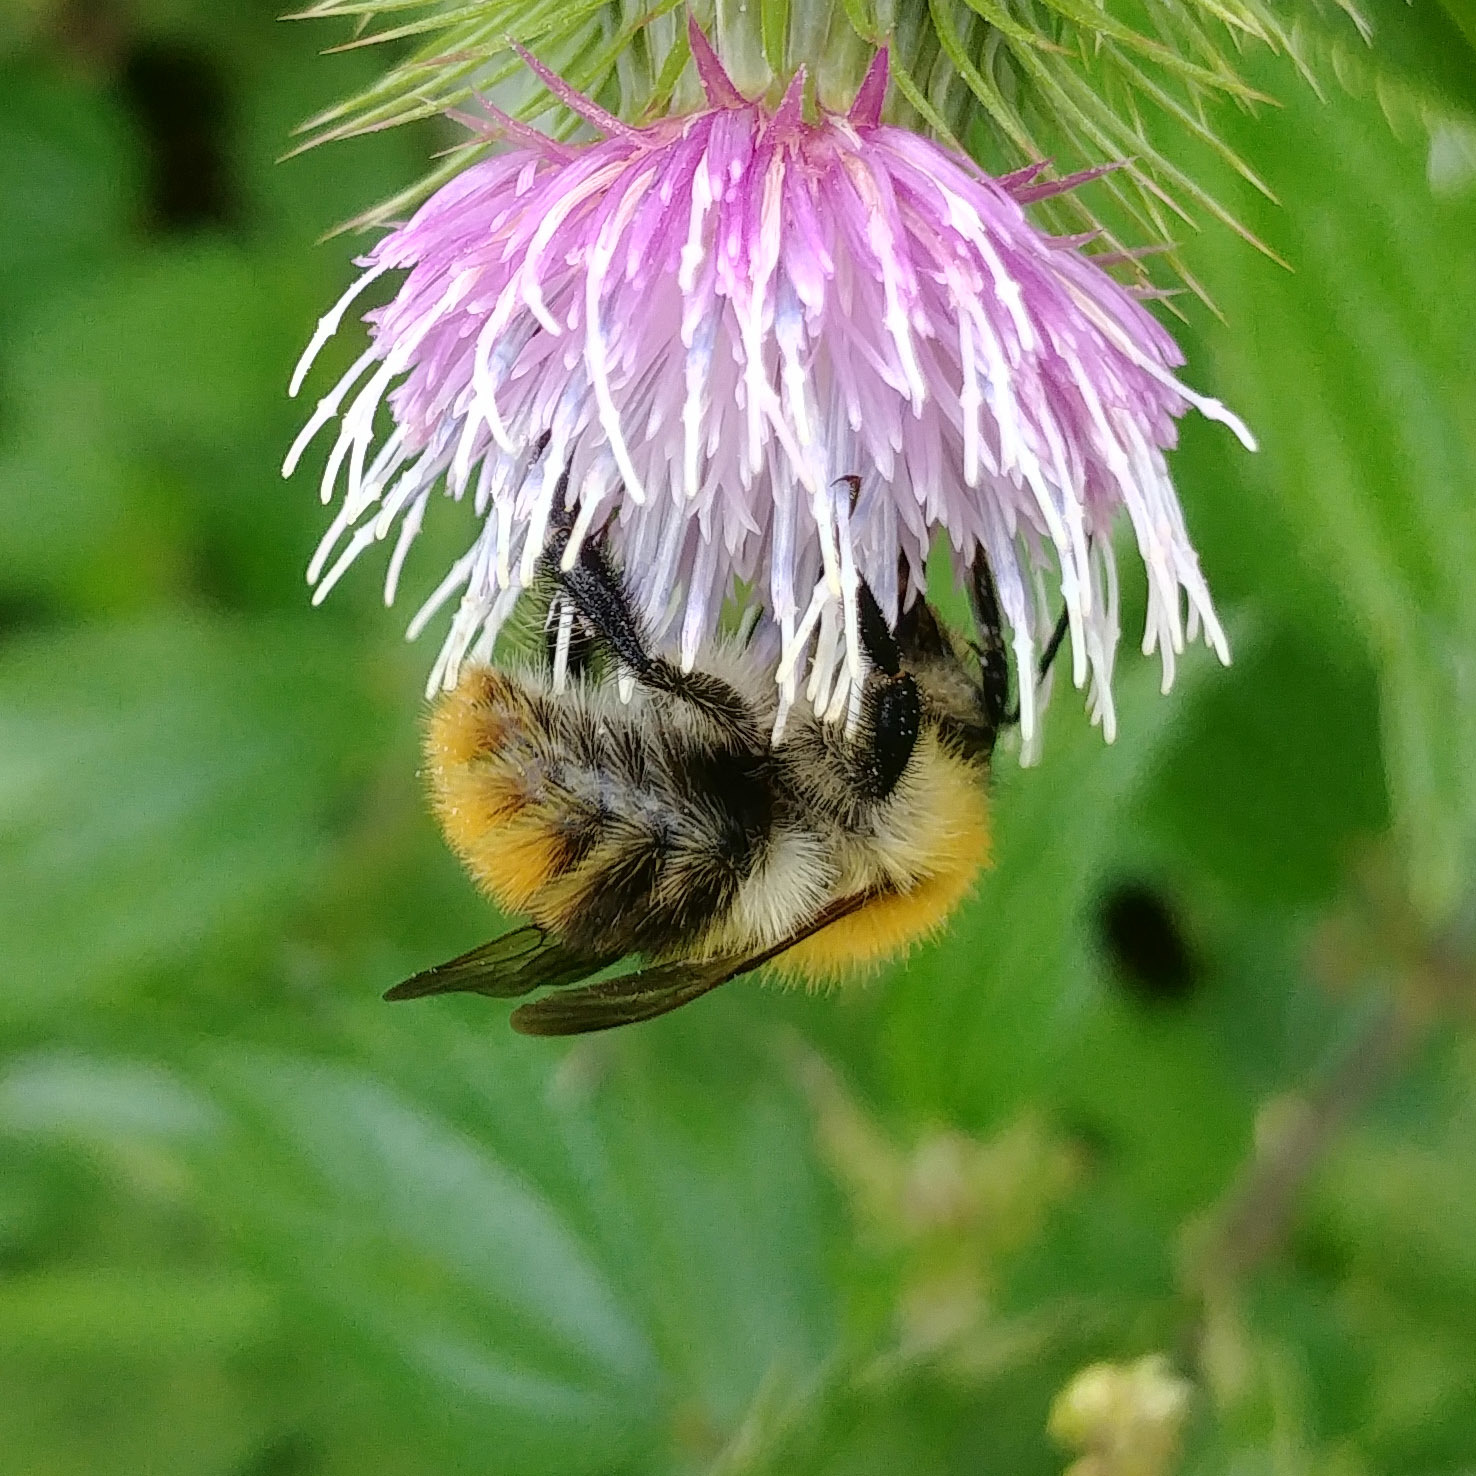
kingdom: Animalia
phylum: Arthropoda
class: Insecta
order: Hymenoptera
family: Apidae
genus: Bombus
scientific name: Bombus pascuorum
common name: Common carder bee
